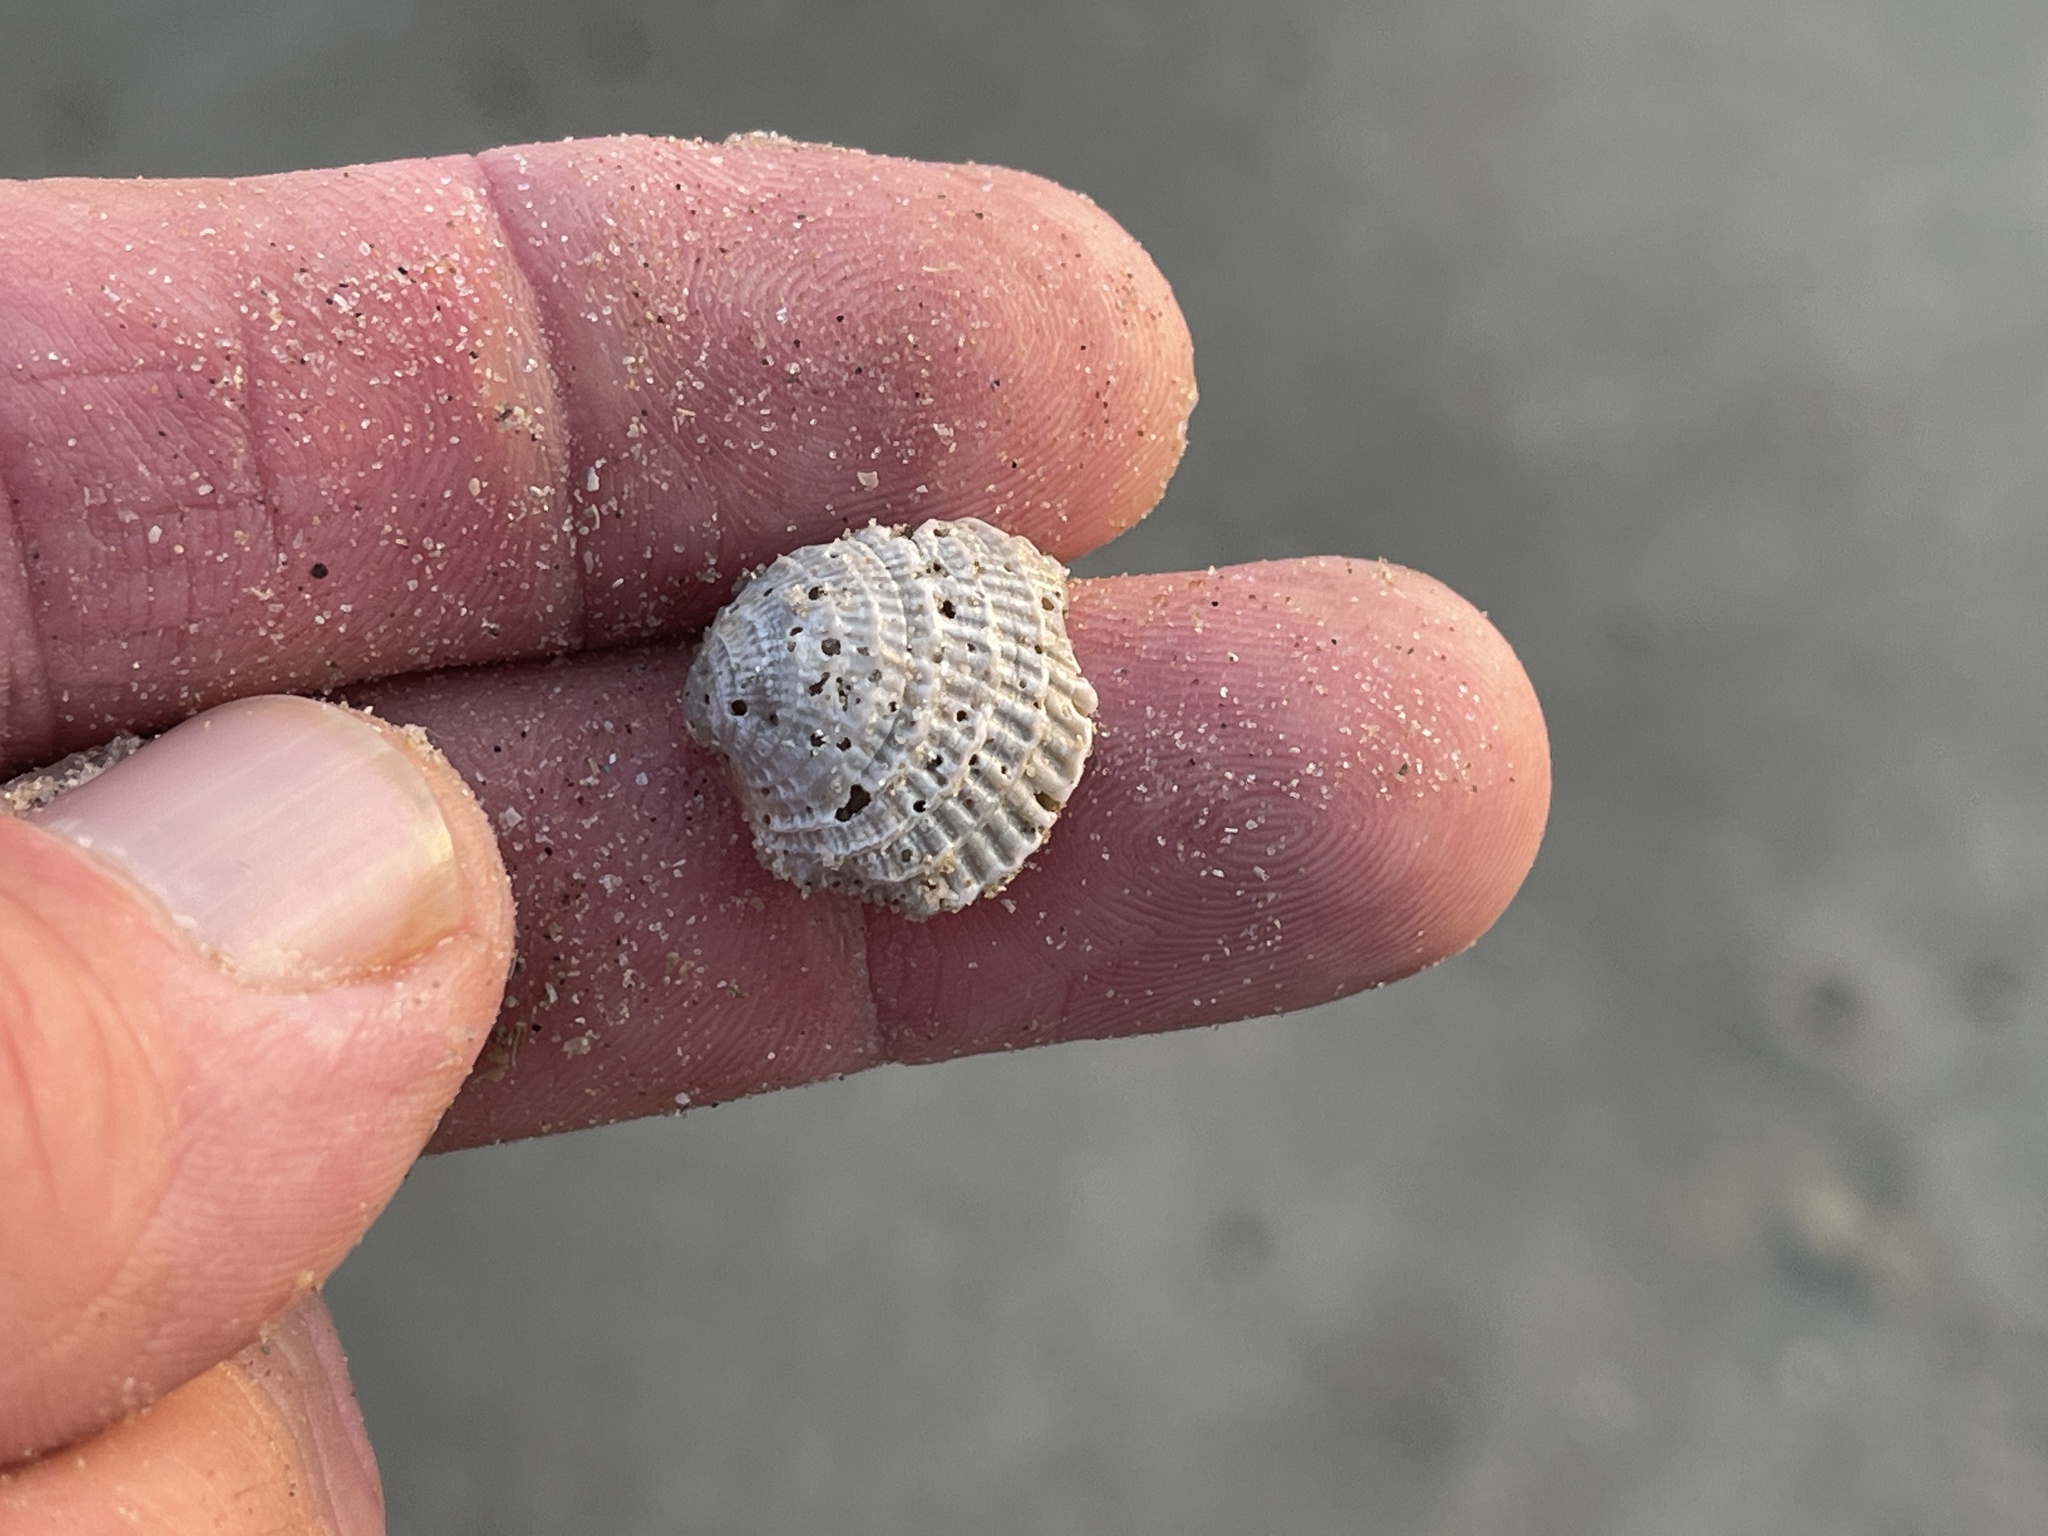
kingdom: Animalia
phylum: Mollusca
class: Bivalvia
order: Venerida
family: Veneridae
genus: Chione
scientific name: Chione elevata
